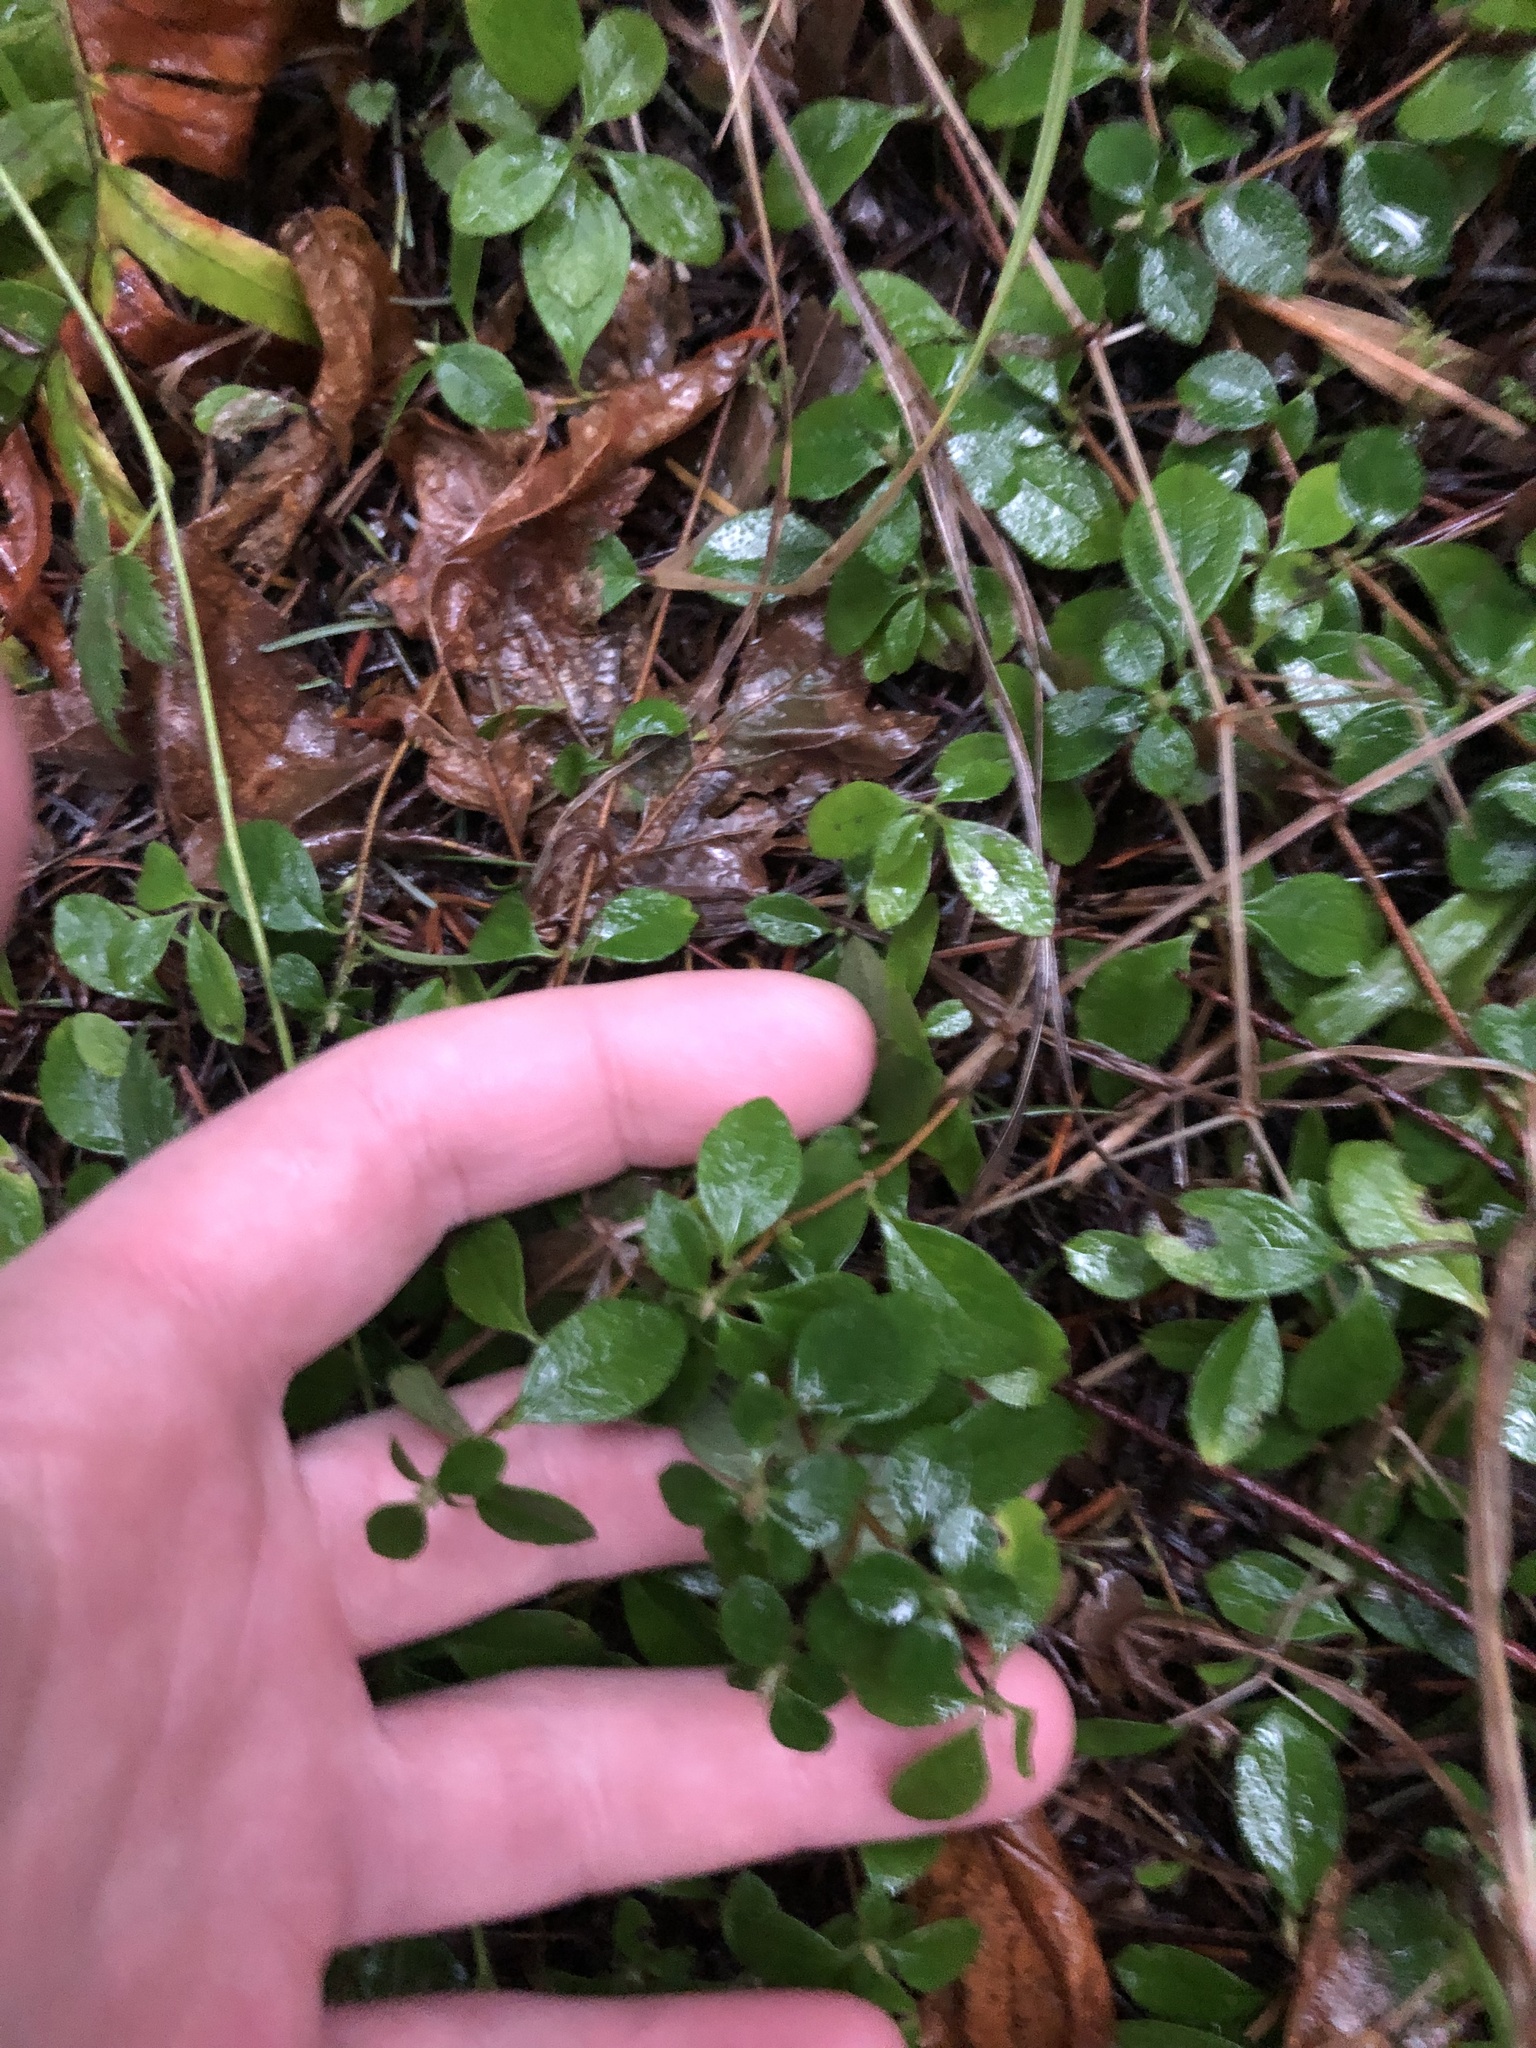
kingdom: Plantae
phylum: Tracheophyta
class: Magnoliopsida
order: Dipsacales
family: Caprifoliaceae
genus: Linnaea
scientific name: Linnaea borealis
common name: Twinflower
